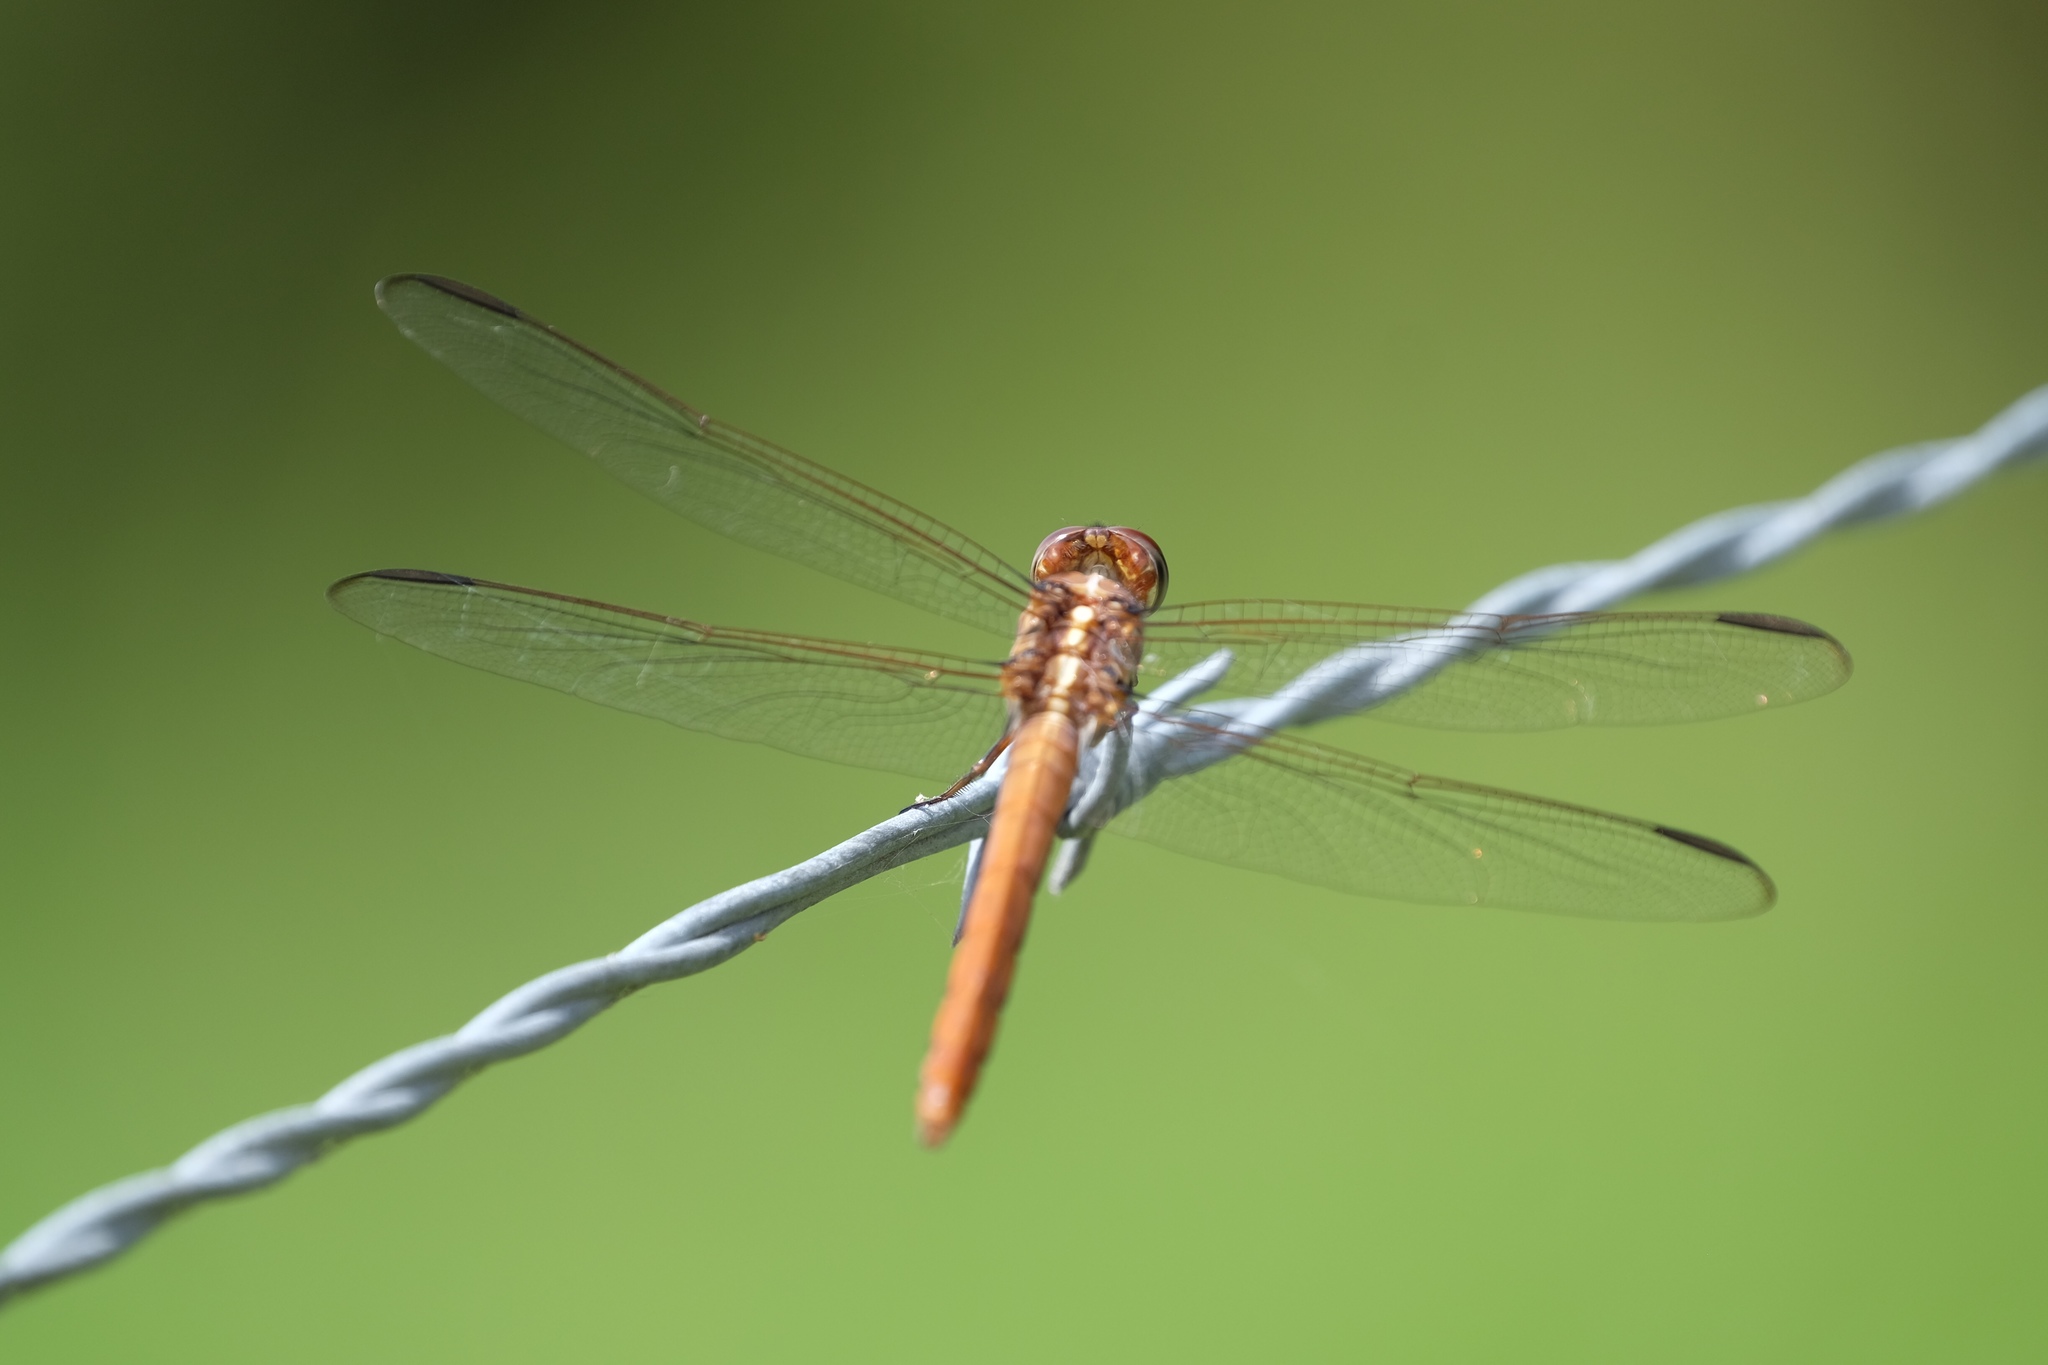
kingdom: Animalia
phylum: Arthropoda
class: Insecta
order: Odonata
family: Libellulidae
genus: Orthemis
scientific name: Orthemis ferruginea
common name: Roseate skimmer
